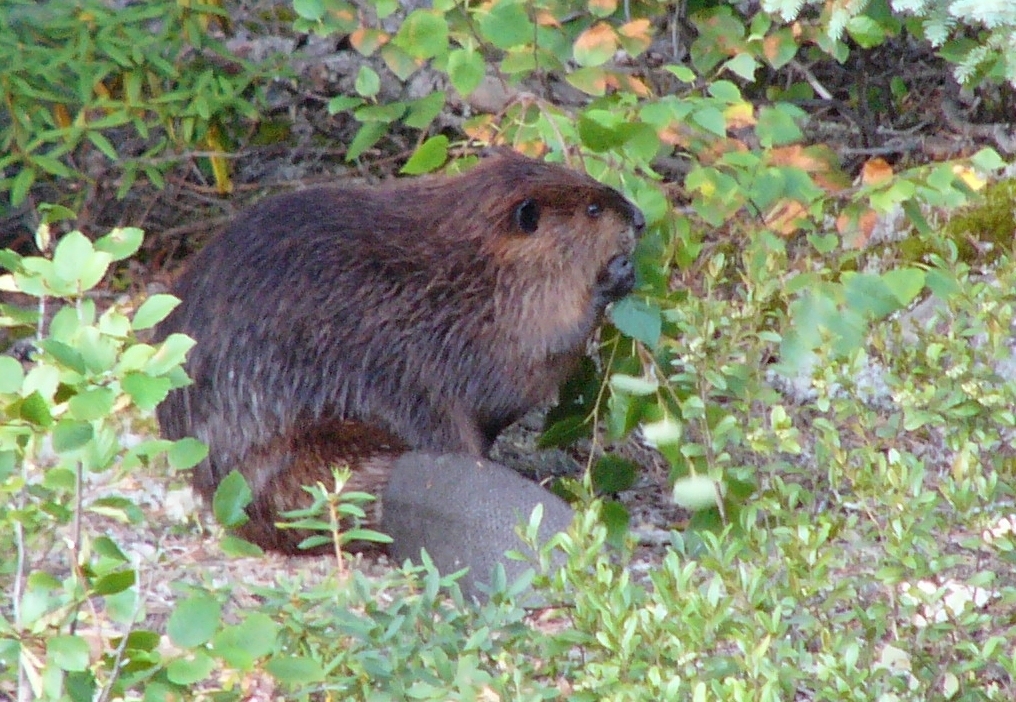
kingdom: Animalia
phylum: Chordata
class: Mammalia
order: Rodentia
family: Castoridae
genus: Castor
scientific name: Castor canadensis
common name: American beaver
